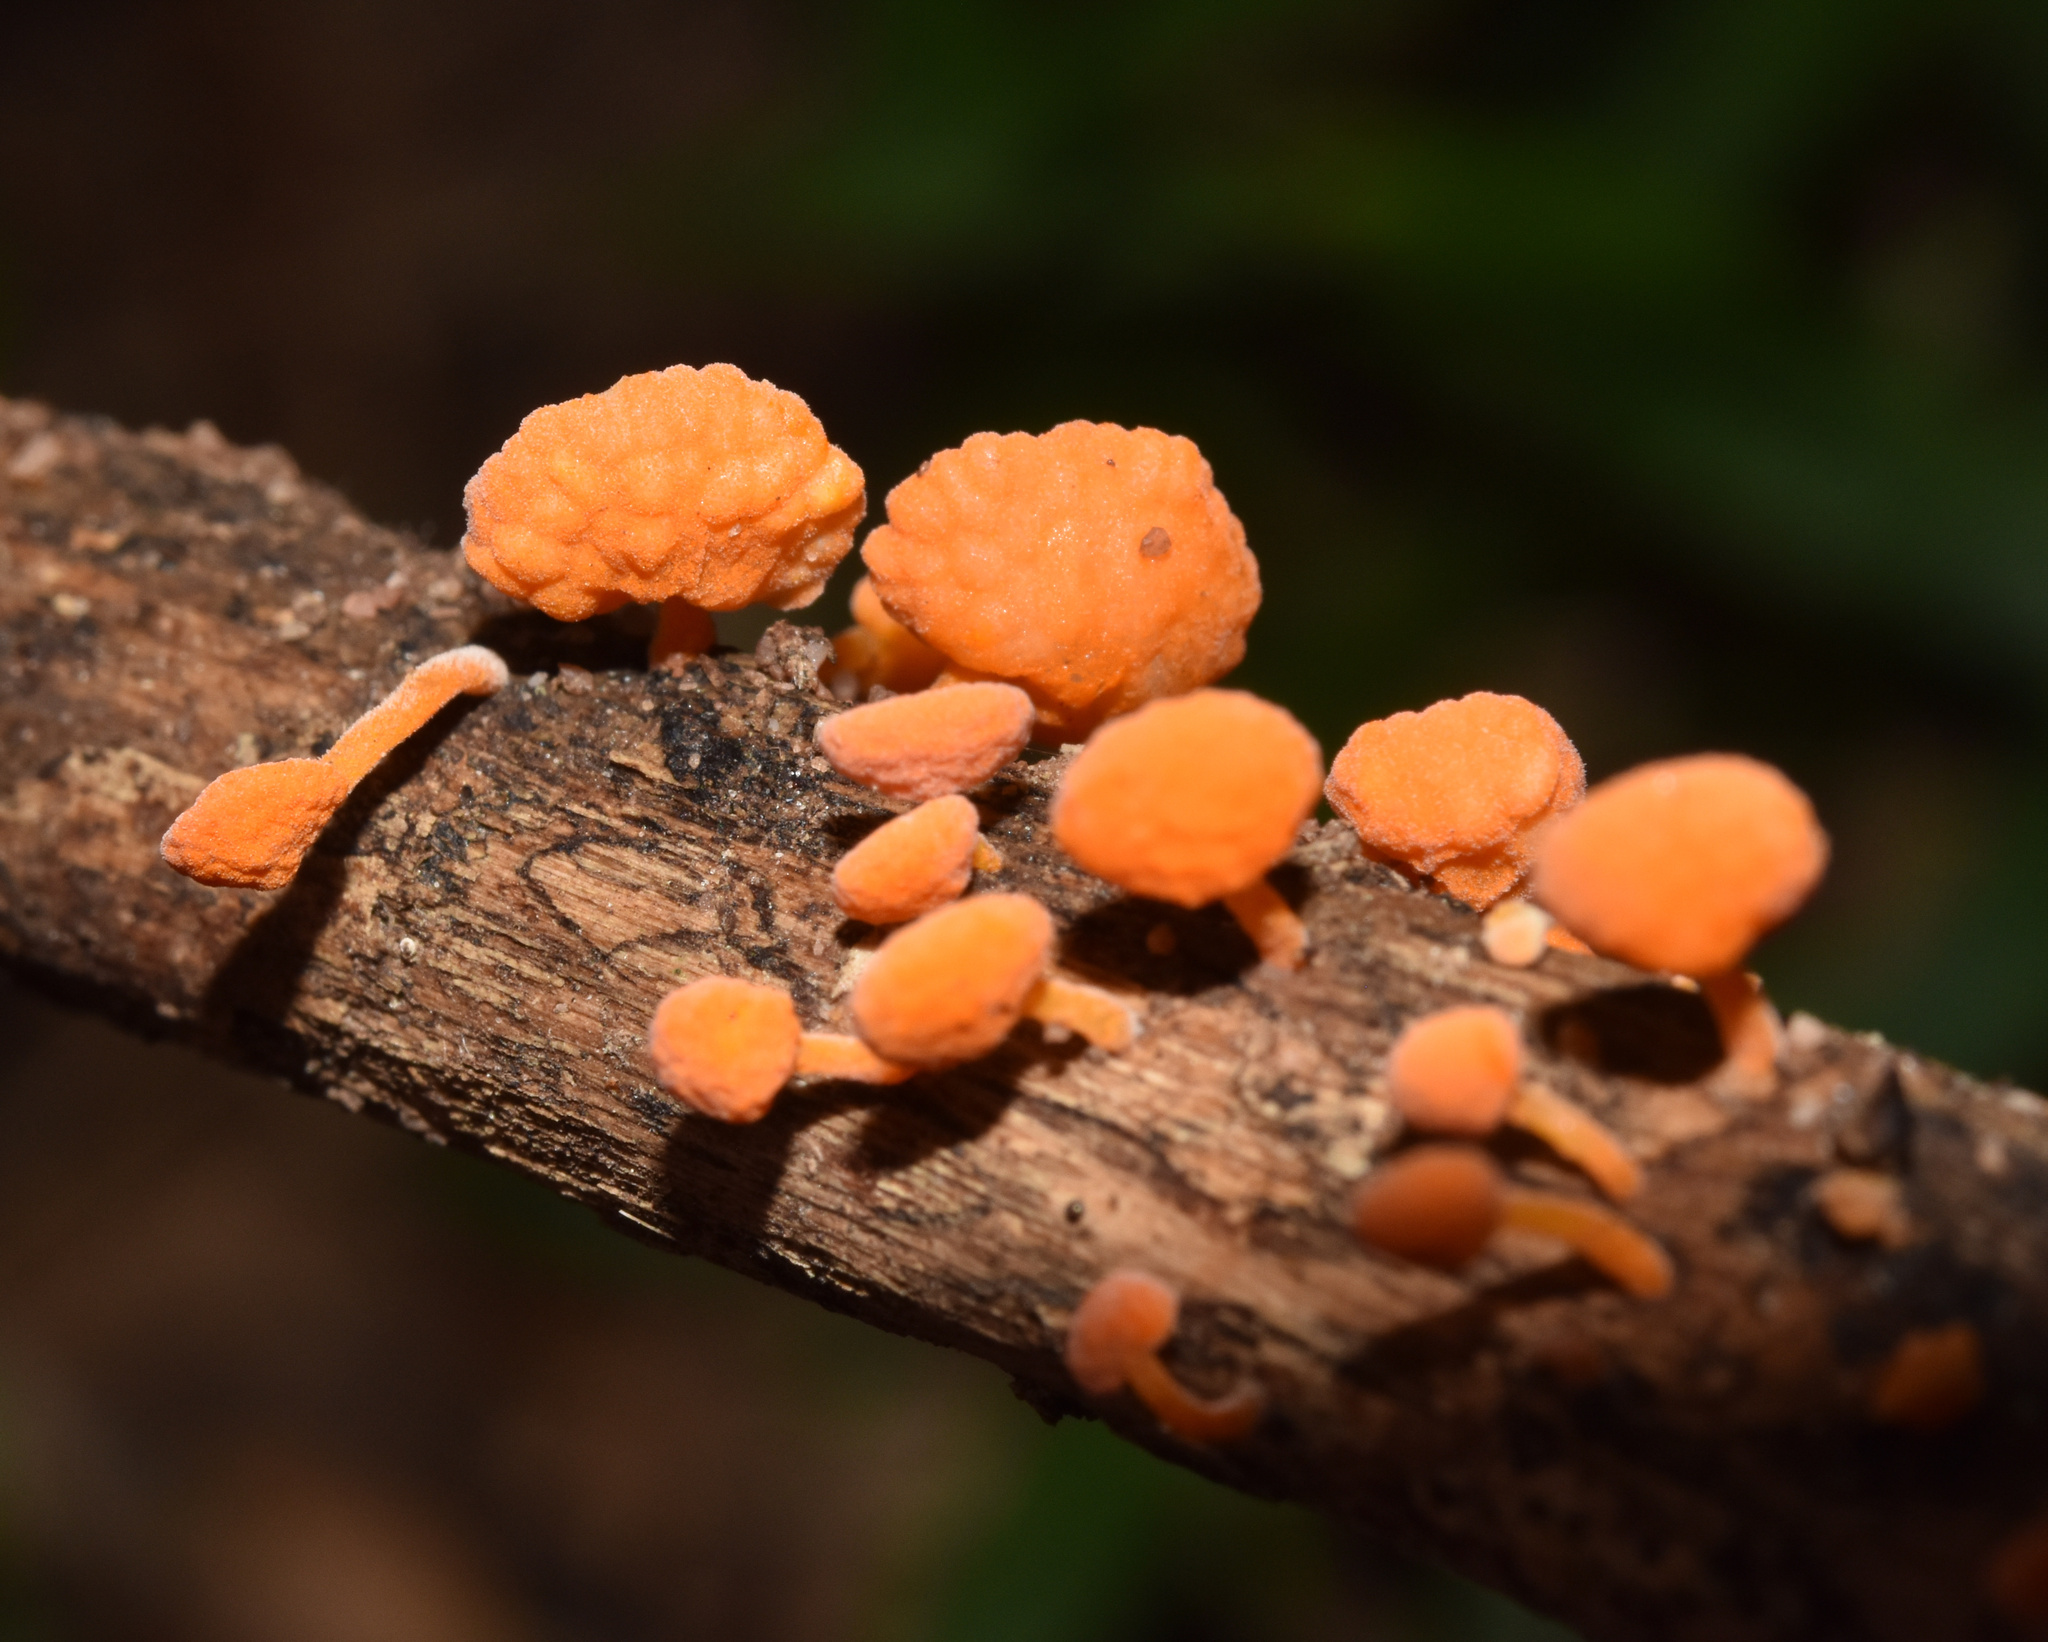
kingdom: Fungi
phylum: Basidiomycota
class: Agaricomycetes
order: Agaricales
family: Mycenaceae
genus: Favolaschia
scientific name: Favolaschia claudopus
